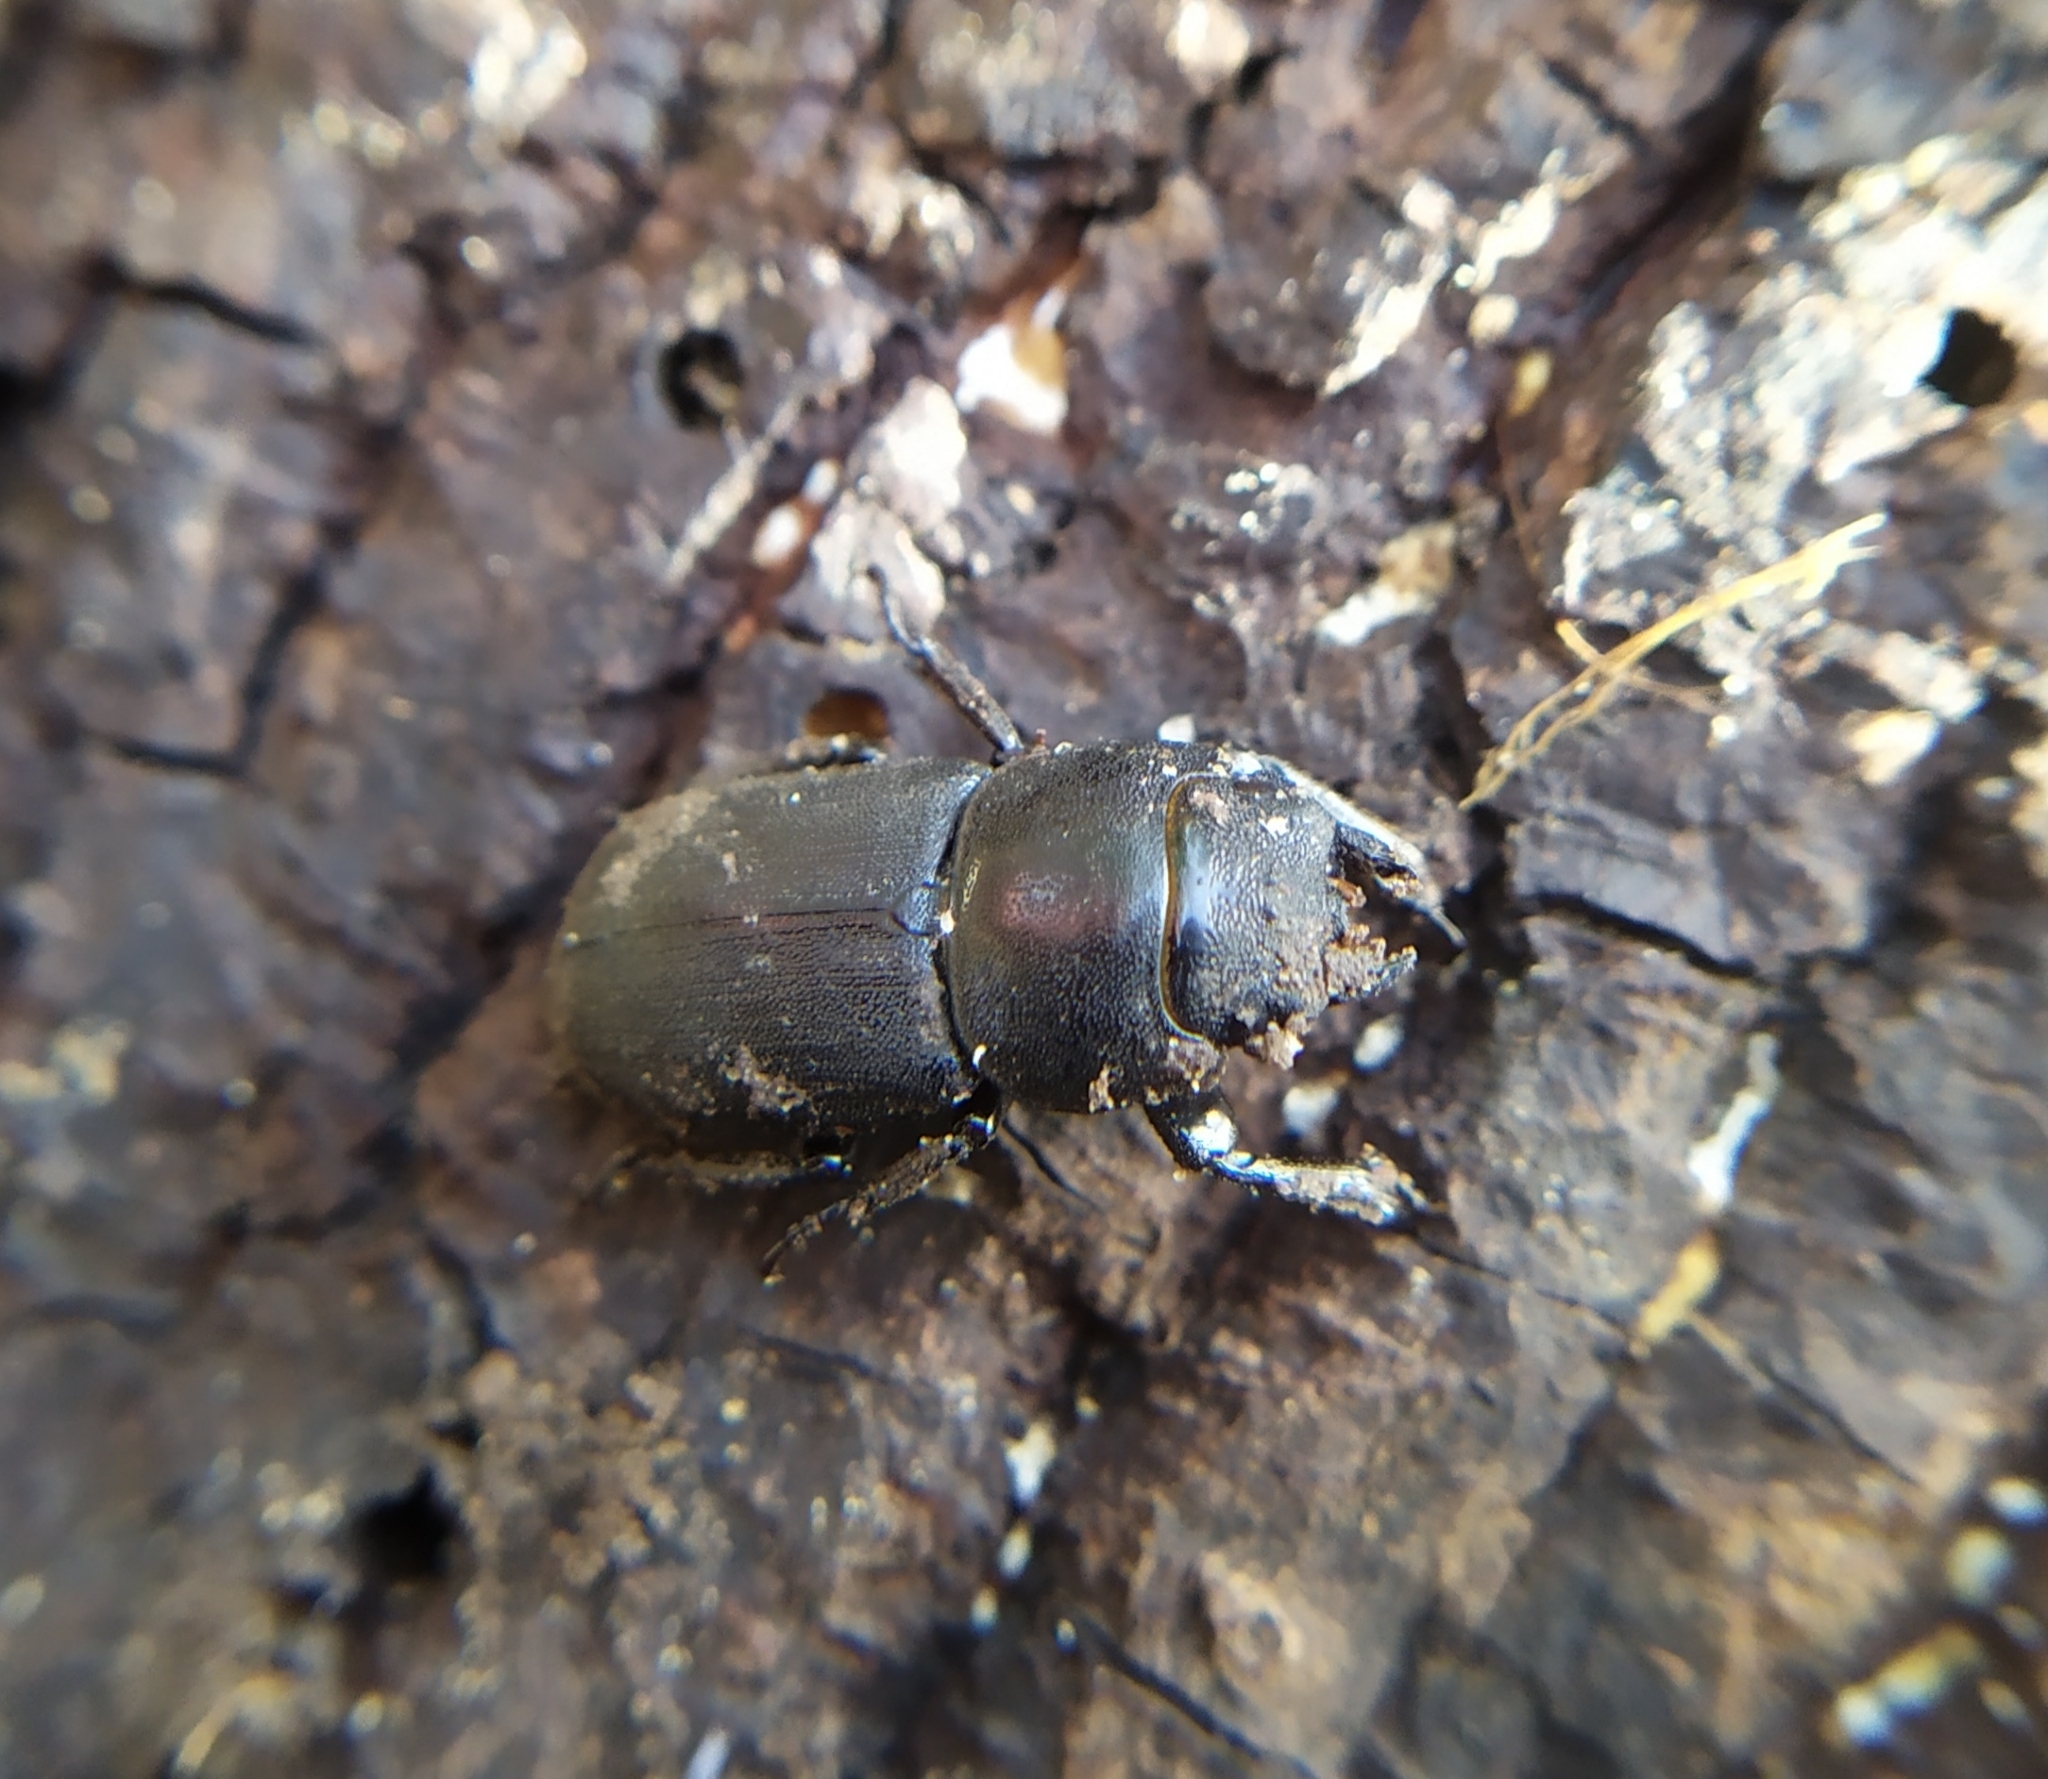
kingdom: Animalia
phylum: Arthropoda
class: Insecta
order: Coleoptera
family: Lucanidae
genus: Dorcus
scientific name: Dorcus parallelipipedus
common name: Lesser stag beetle
